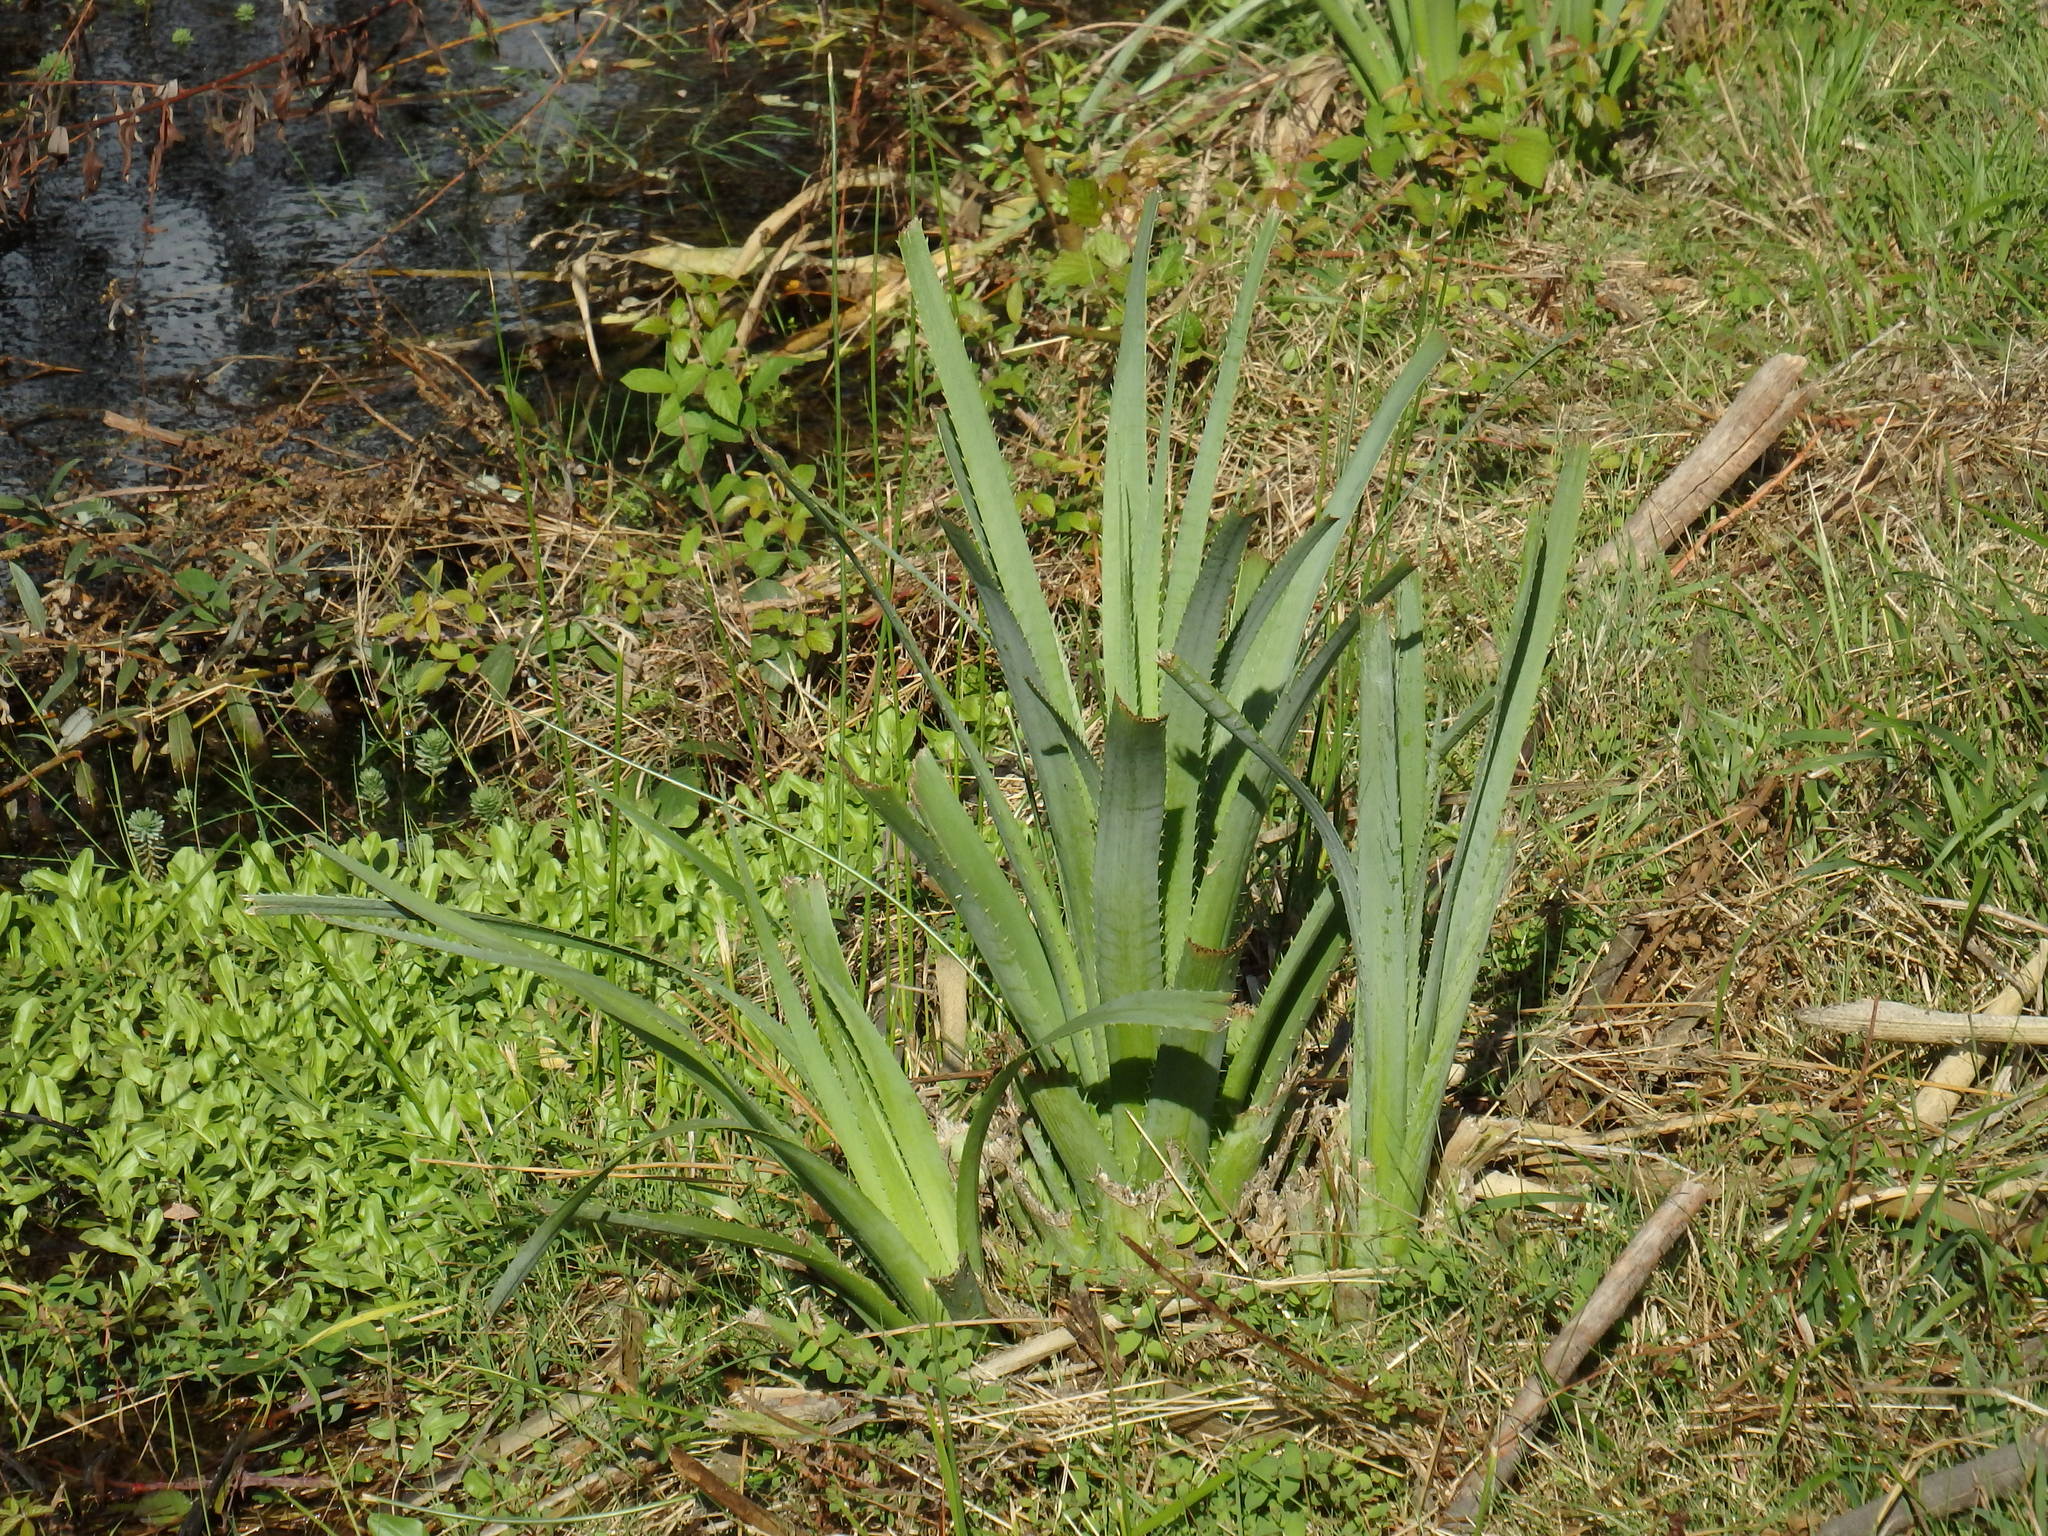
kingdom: Plantae
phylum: Tracheophyta
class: Magnoliopsida
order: Apiales
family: Apiaceae
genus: Eryngium
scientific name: Eryngium pandanifolium
